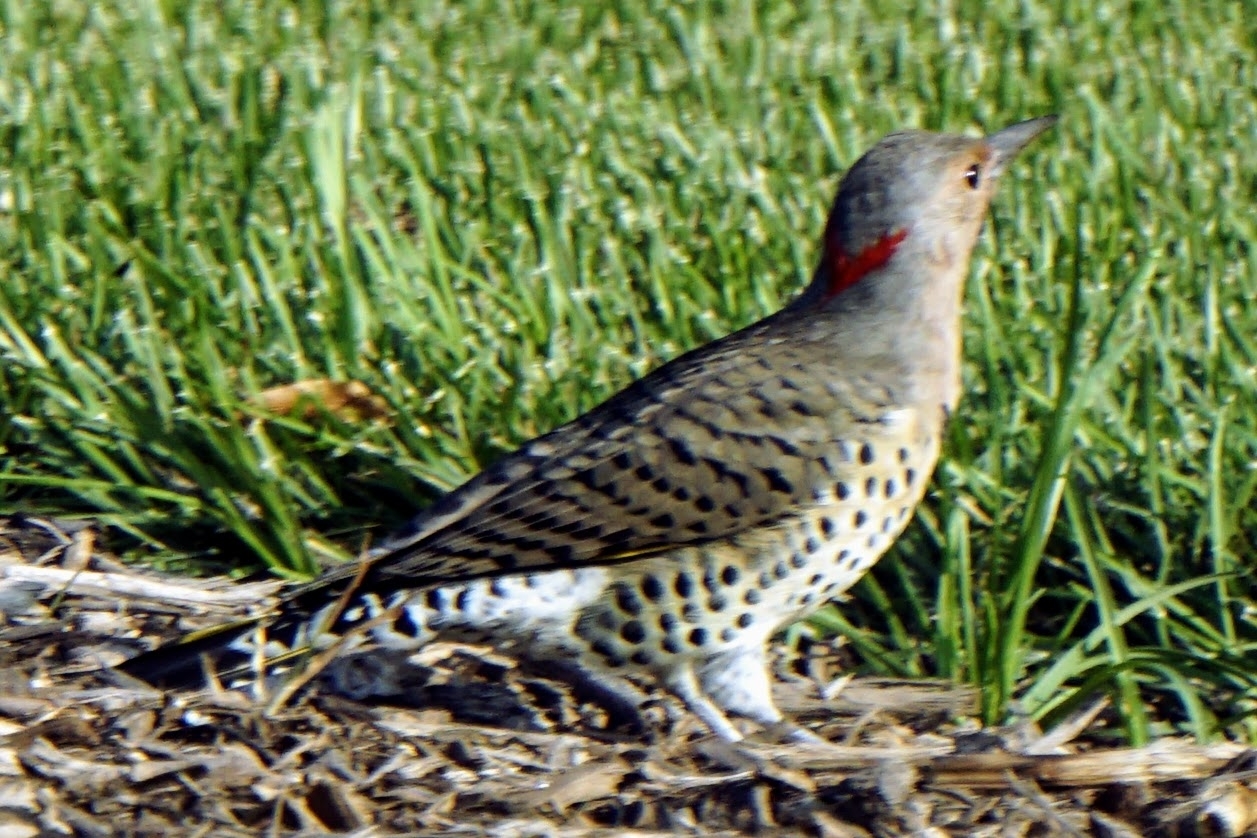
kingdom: Animalia
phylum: Chordata
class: Aves
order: Piciformes
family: Picidae
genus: Colaptes
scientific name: Colaptes auratus
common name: Northern flicker
